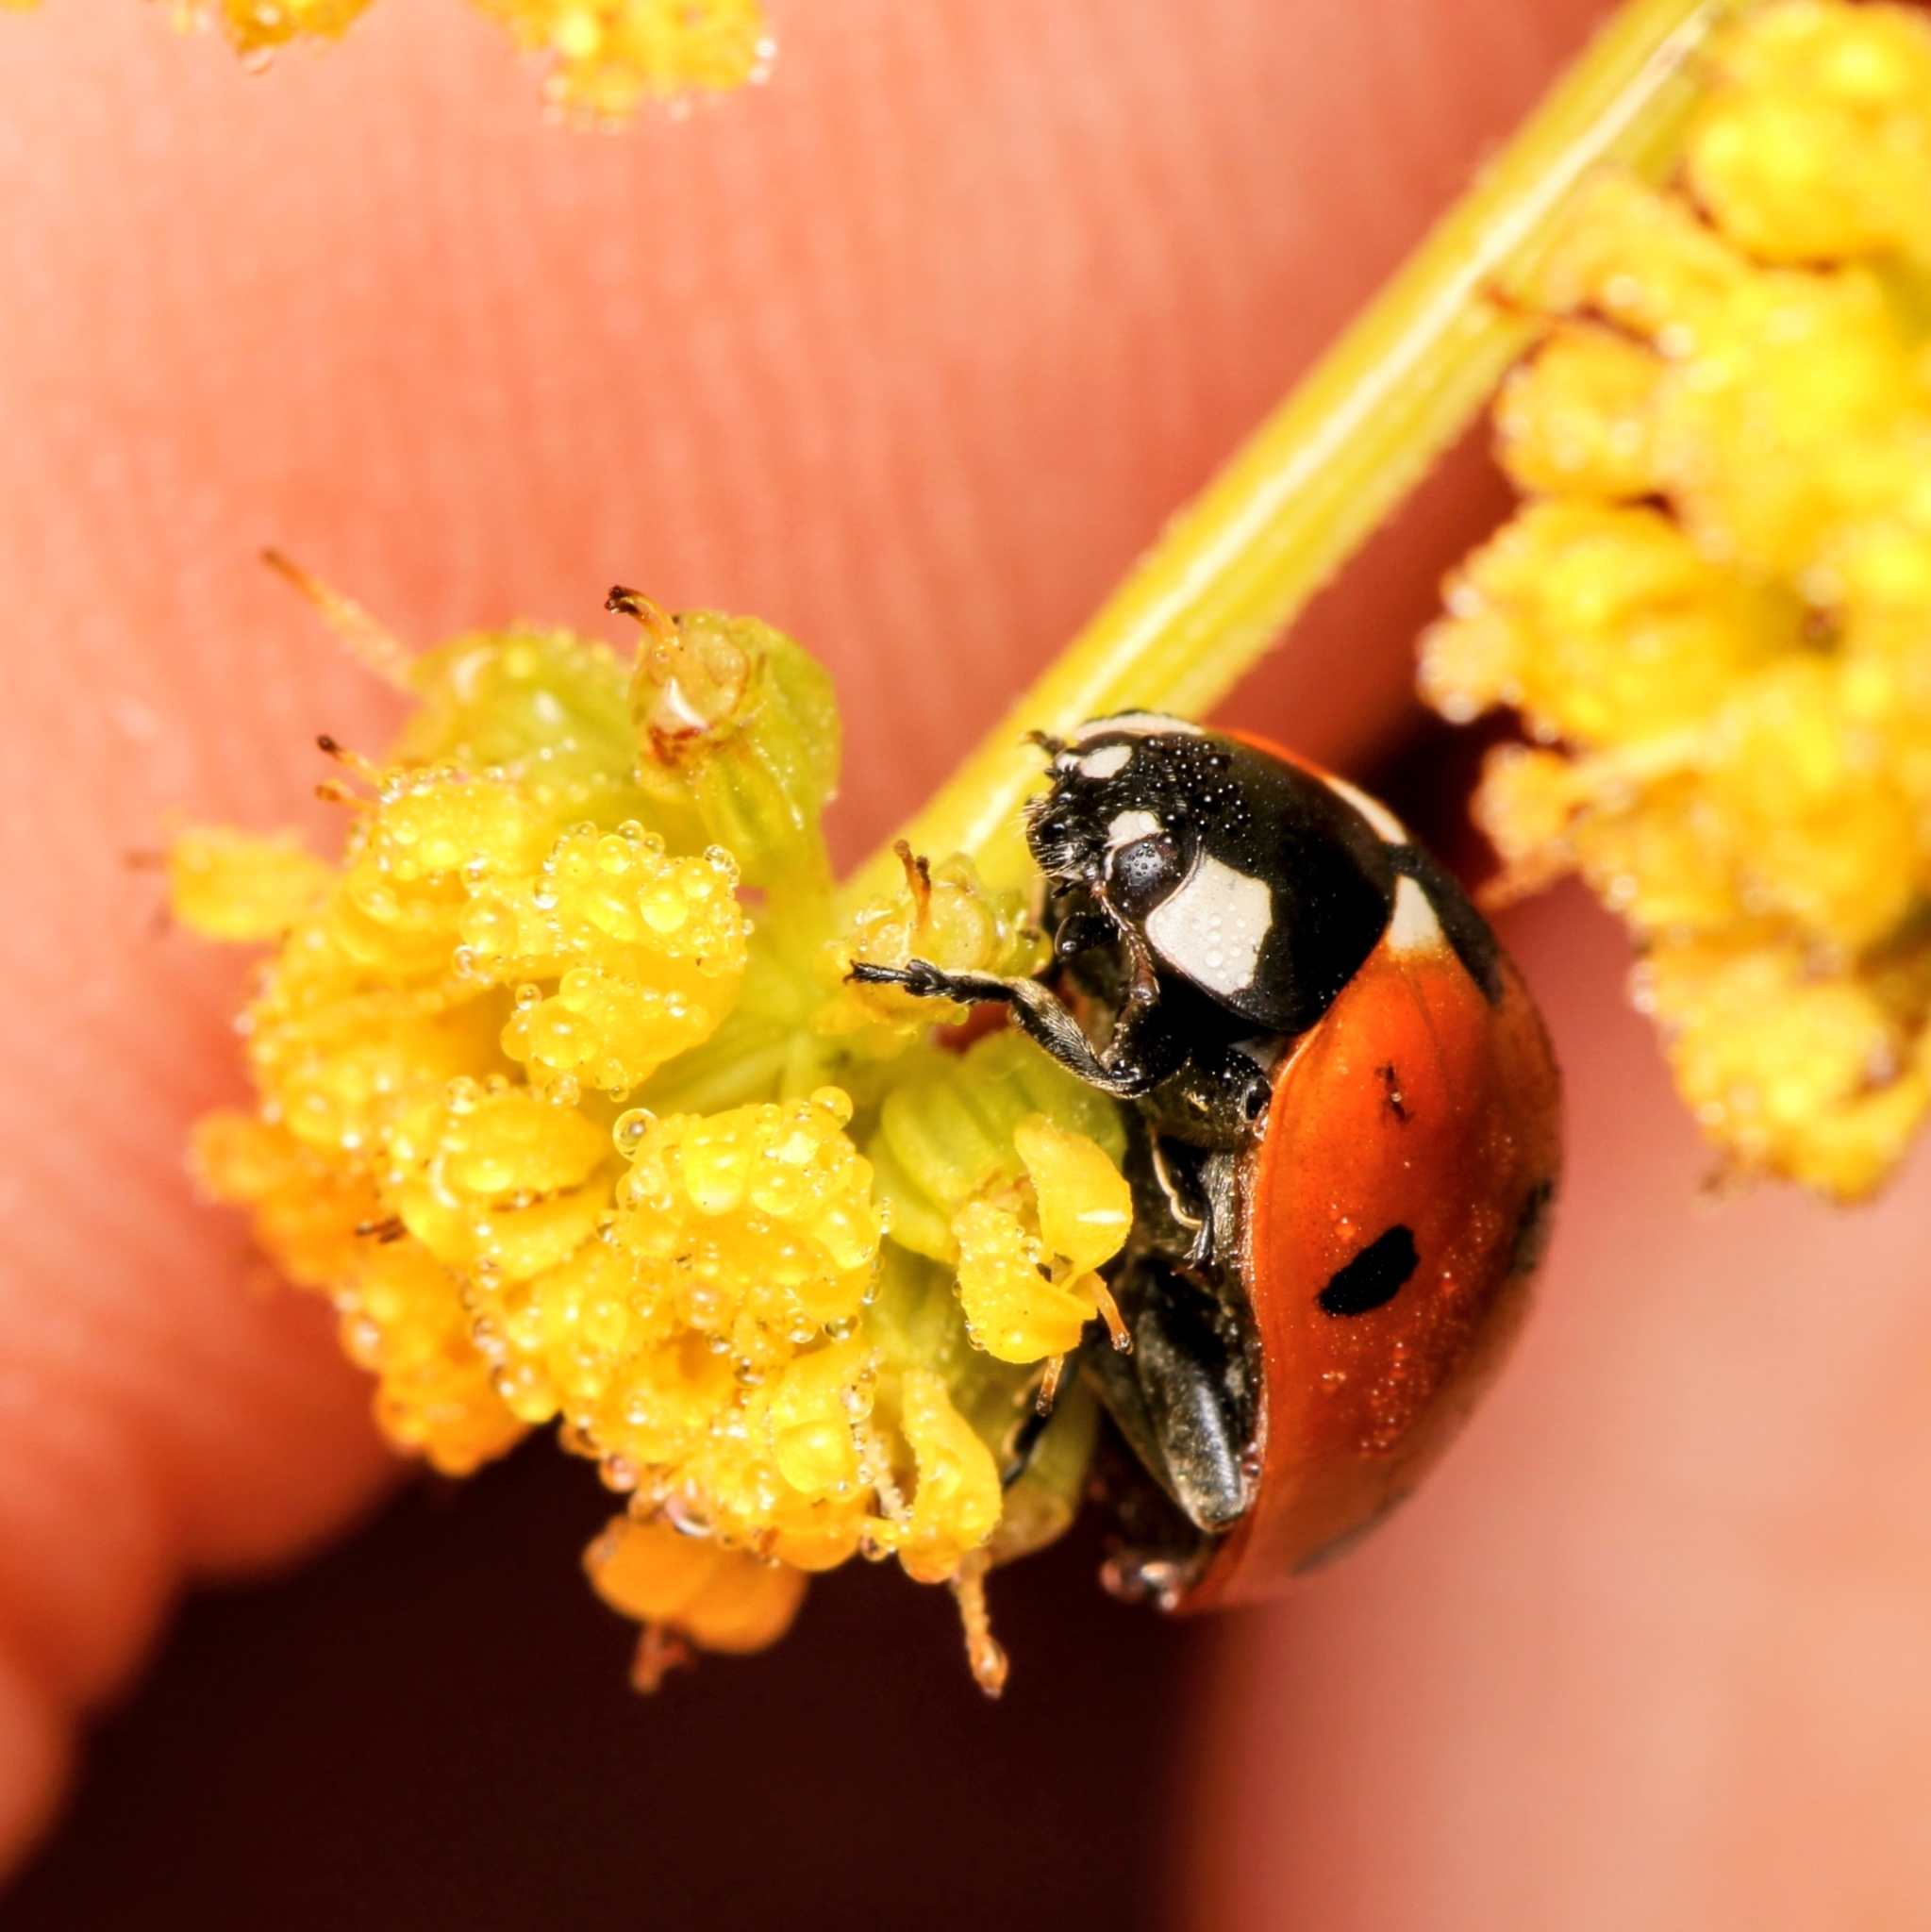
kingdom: Animalia
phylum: Arthropoda
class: Insecta
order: Coleoptera
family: Coccinellidae
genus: Coccinella
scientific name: Coccinella septempunctata
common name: Sevenspotted lady beetle
